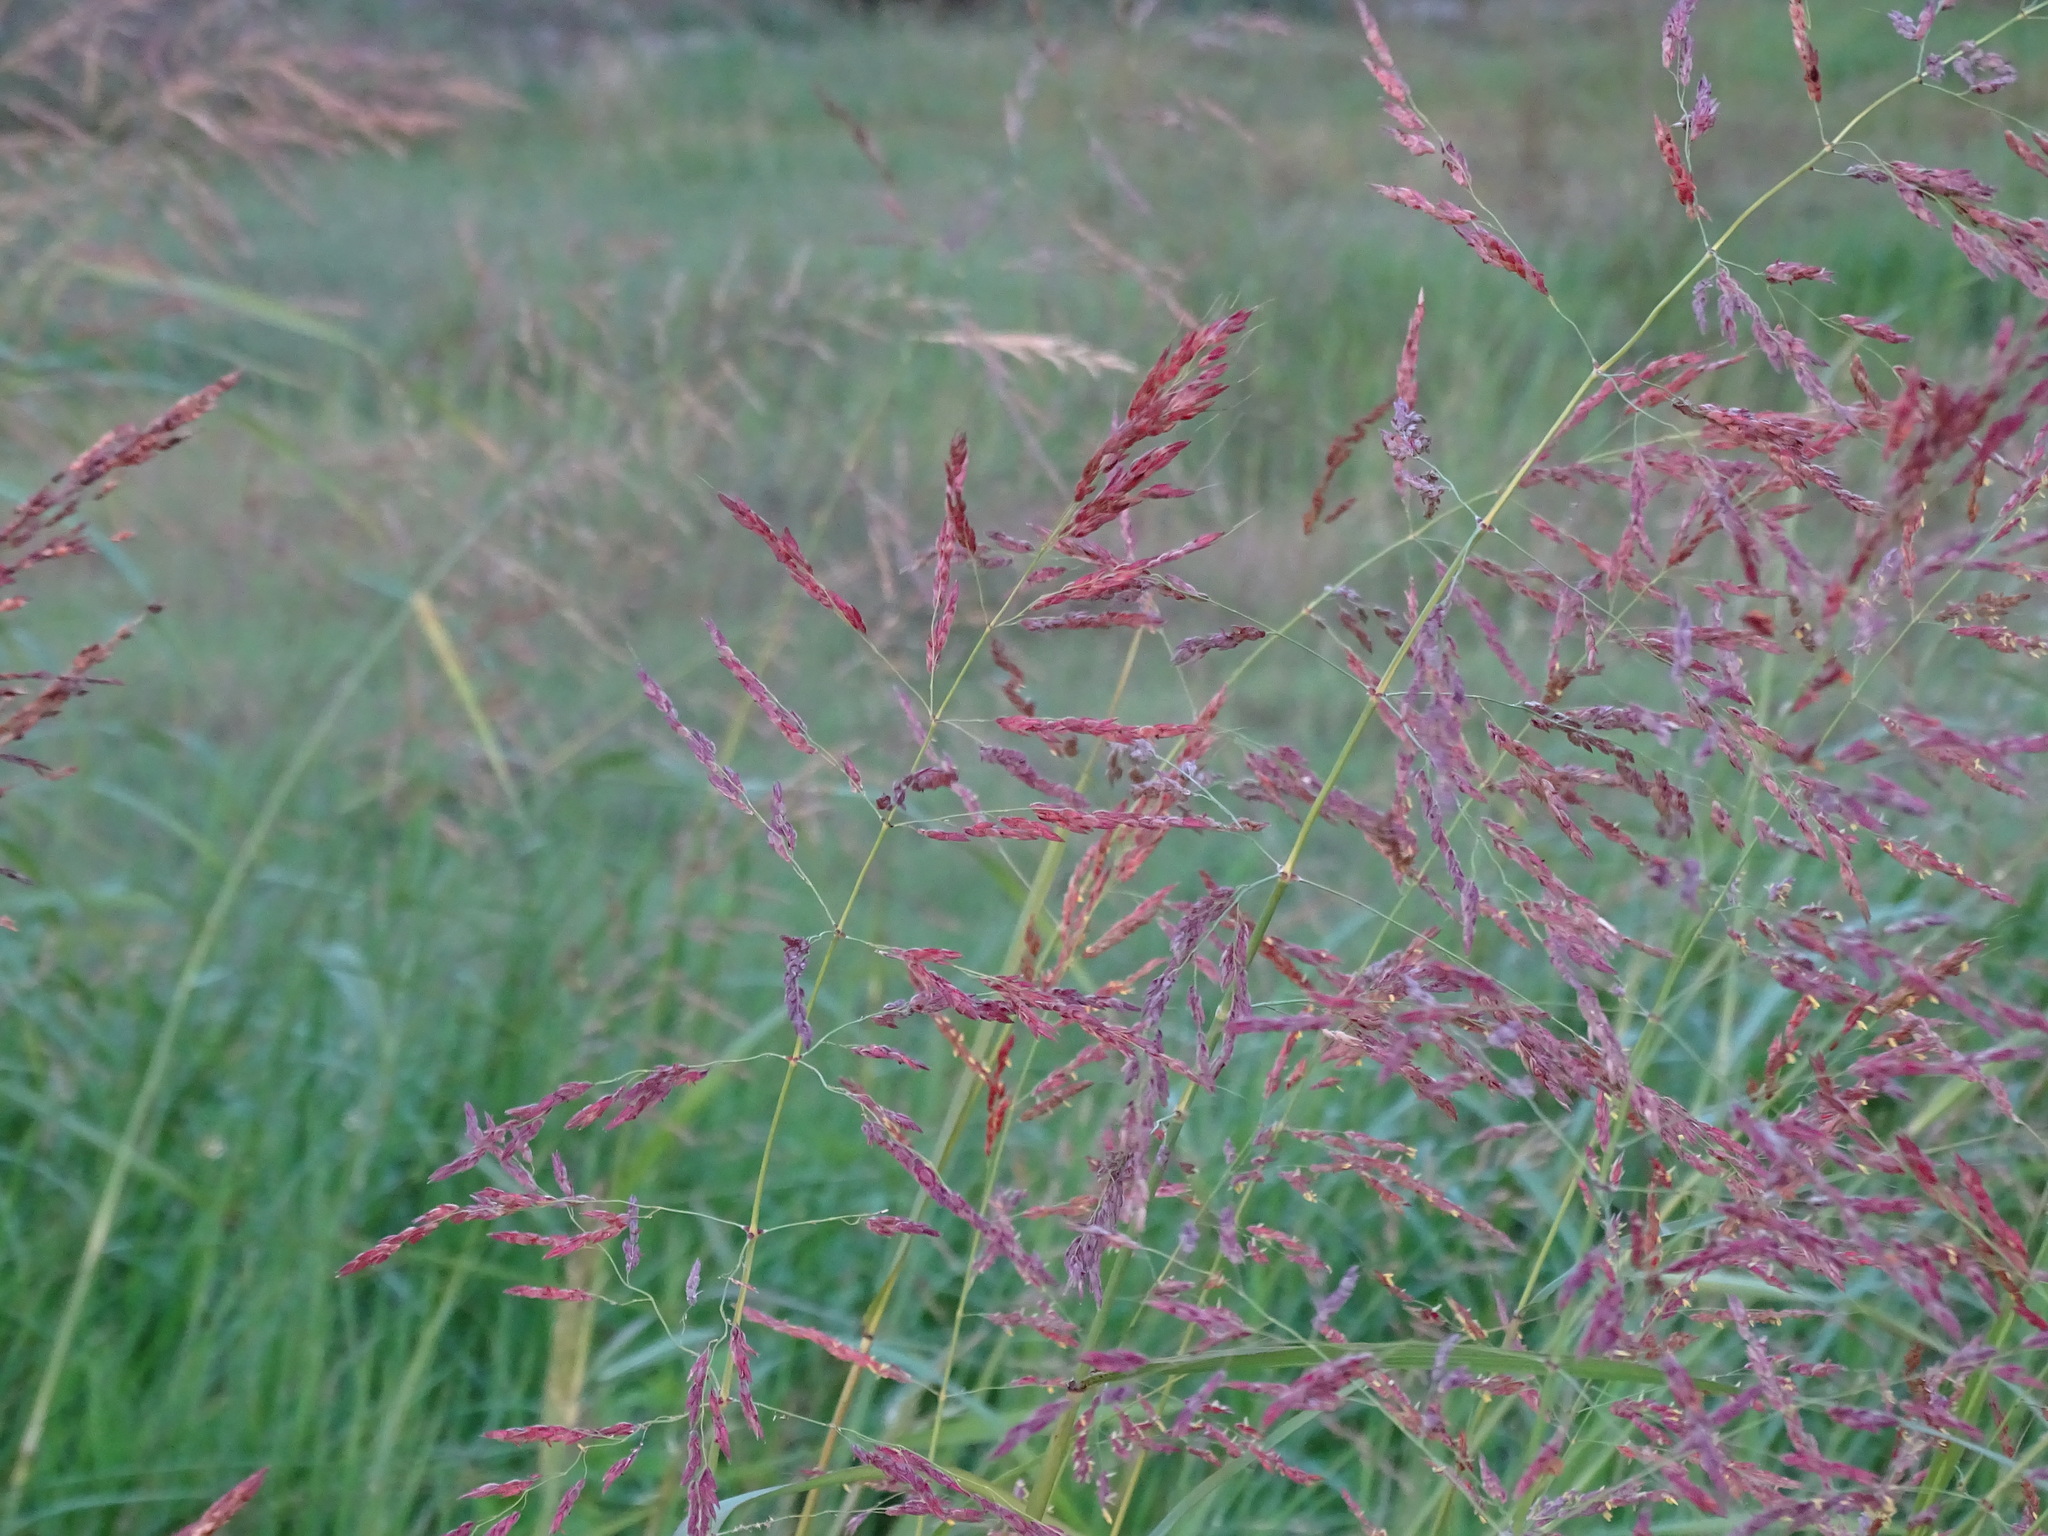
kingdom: Plantae
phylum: Tracheophyta
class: Liliopsida
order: Poales
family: Poaceae
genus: Melinis
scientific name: Melinis repens
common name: Rose natal grass
